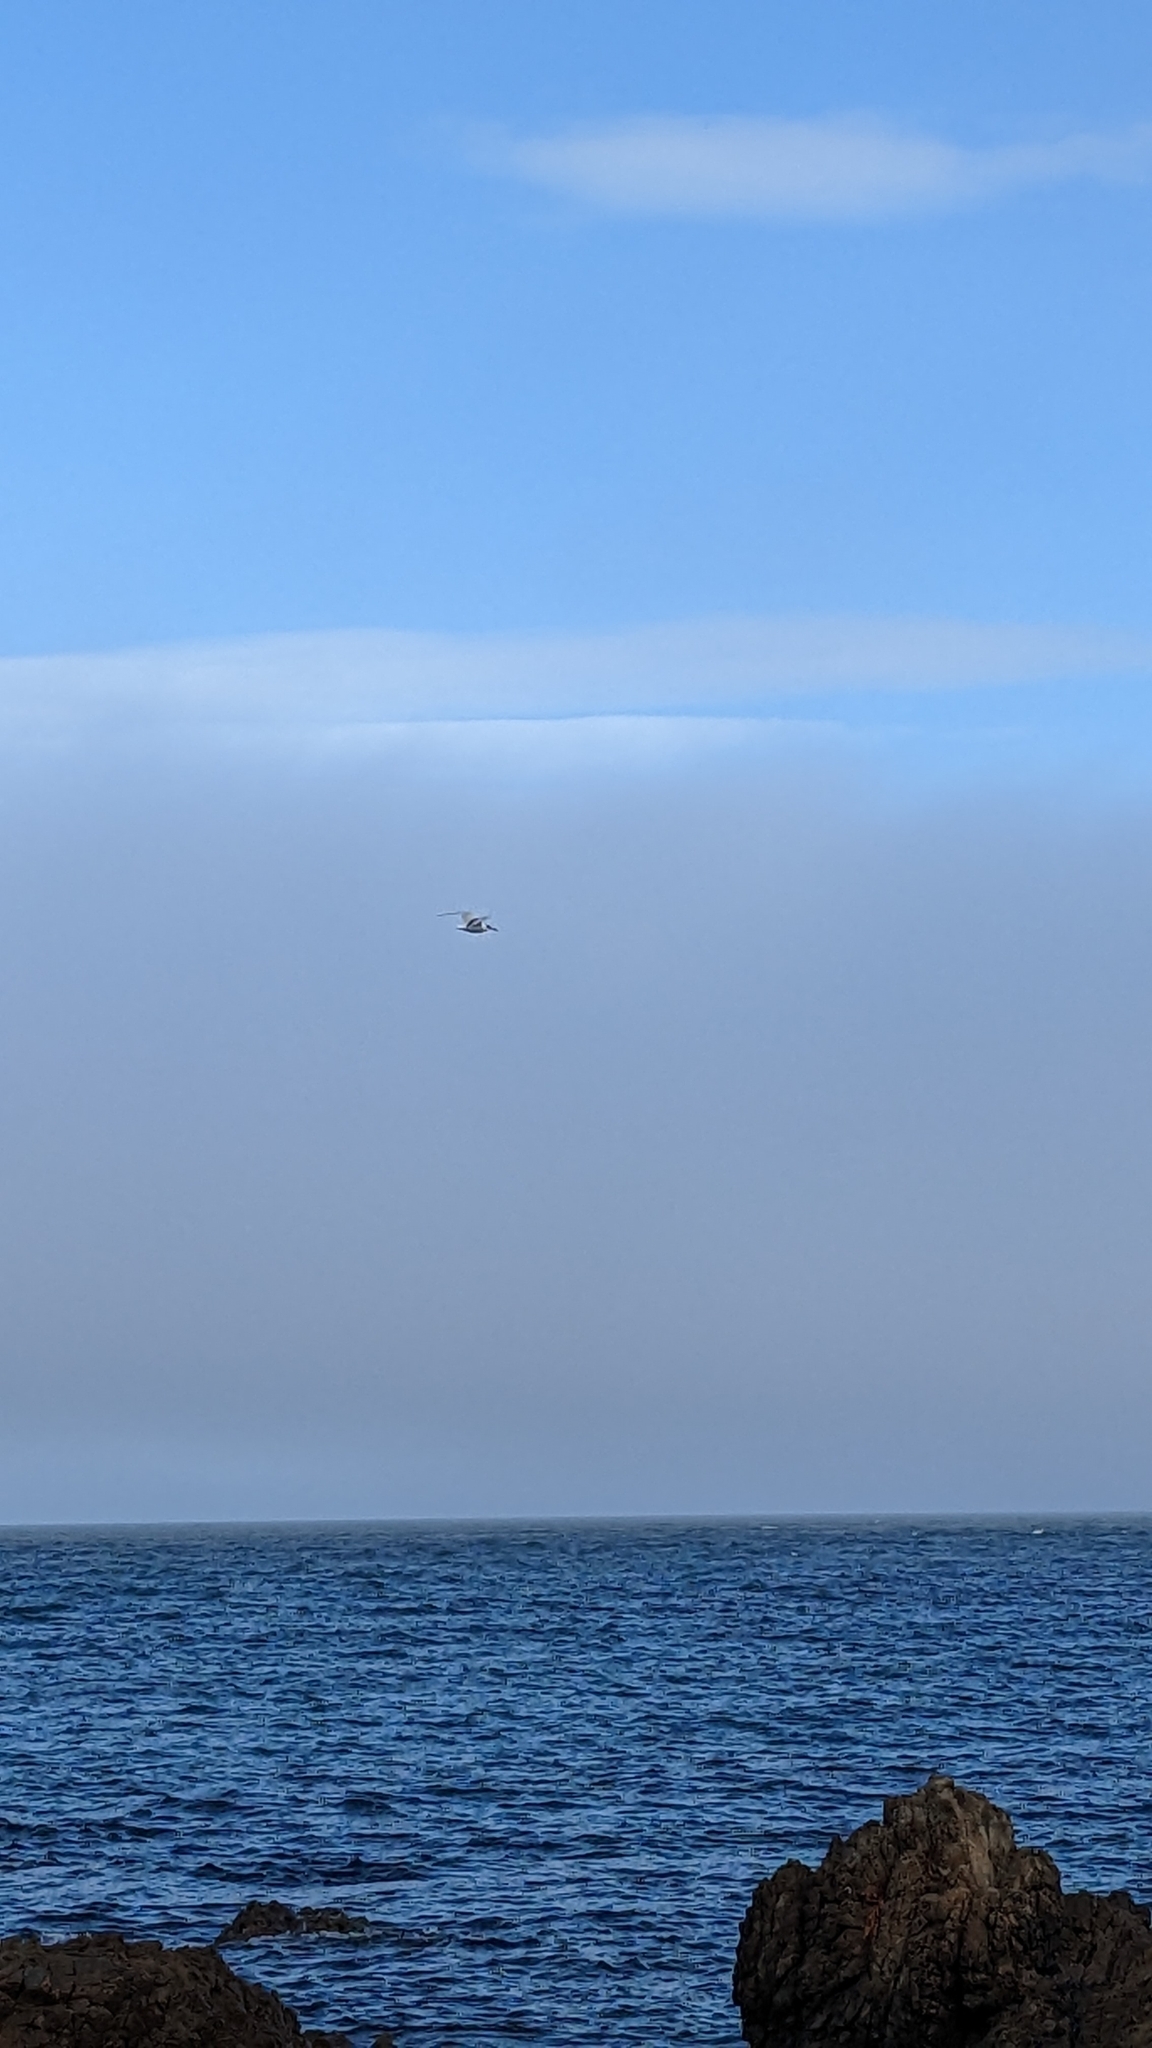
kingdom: Animalia
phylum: Chordata
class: Aves
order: Charadriiformes
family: Laridae
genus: Hydroprogne
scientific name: Hydroprogne caspia
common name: Caspian tern
